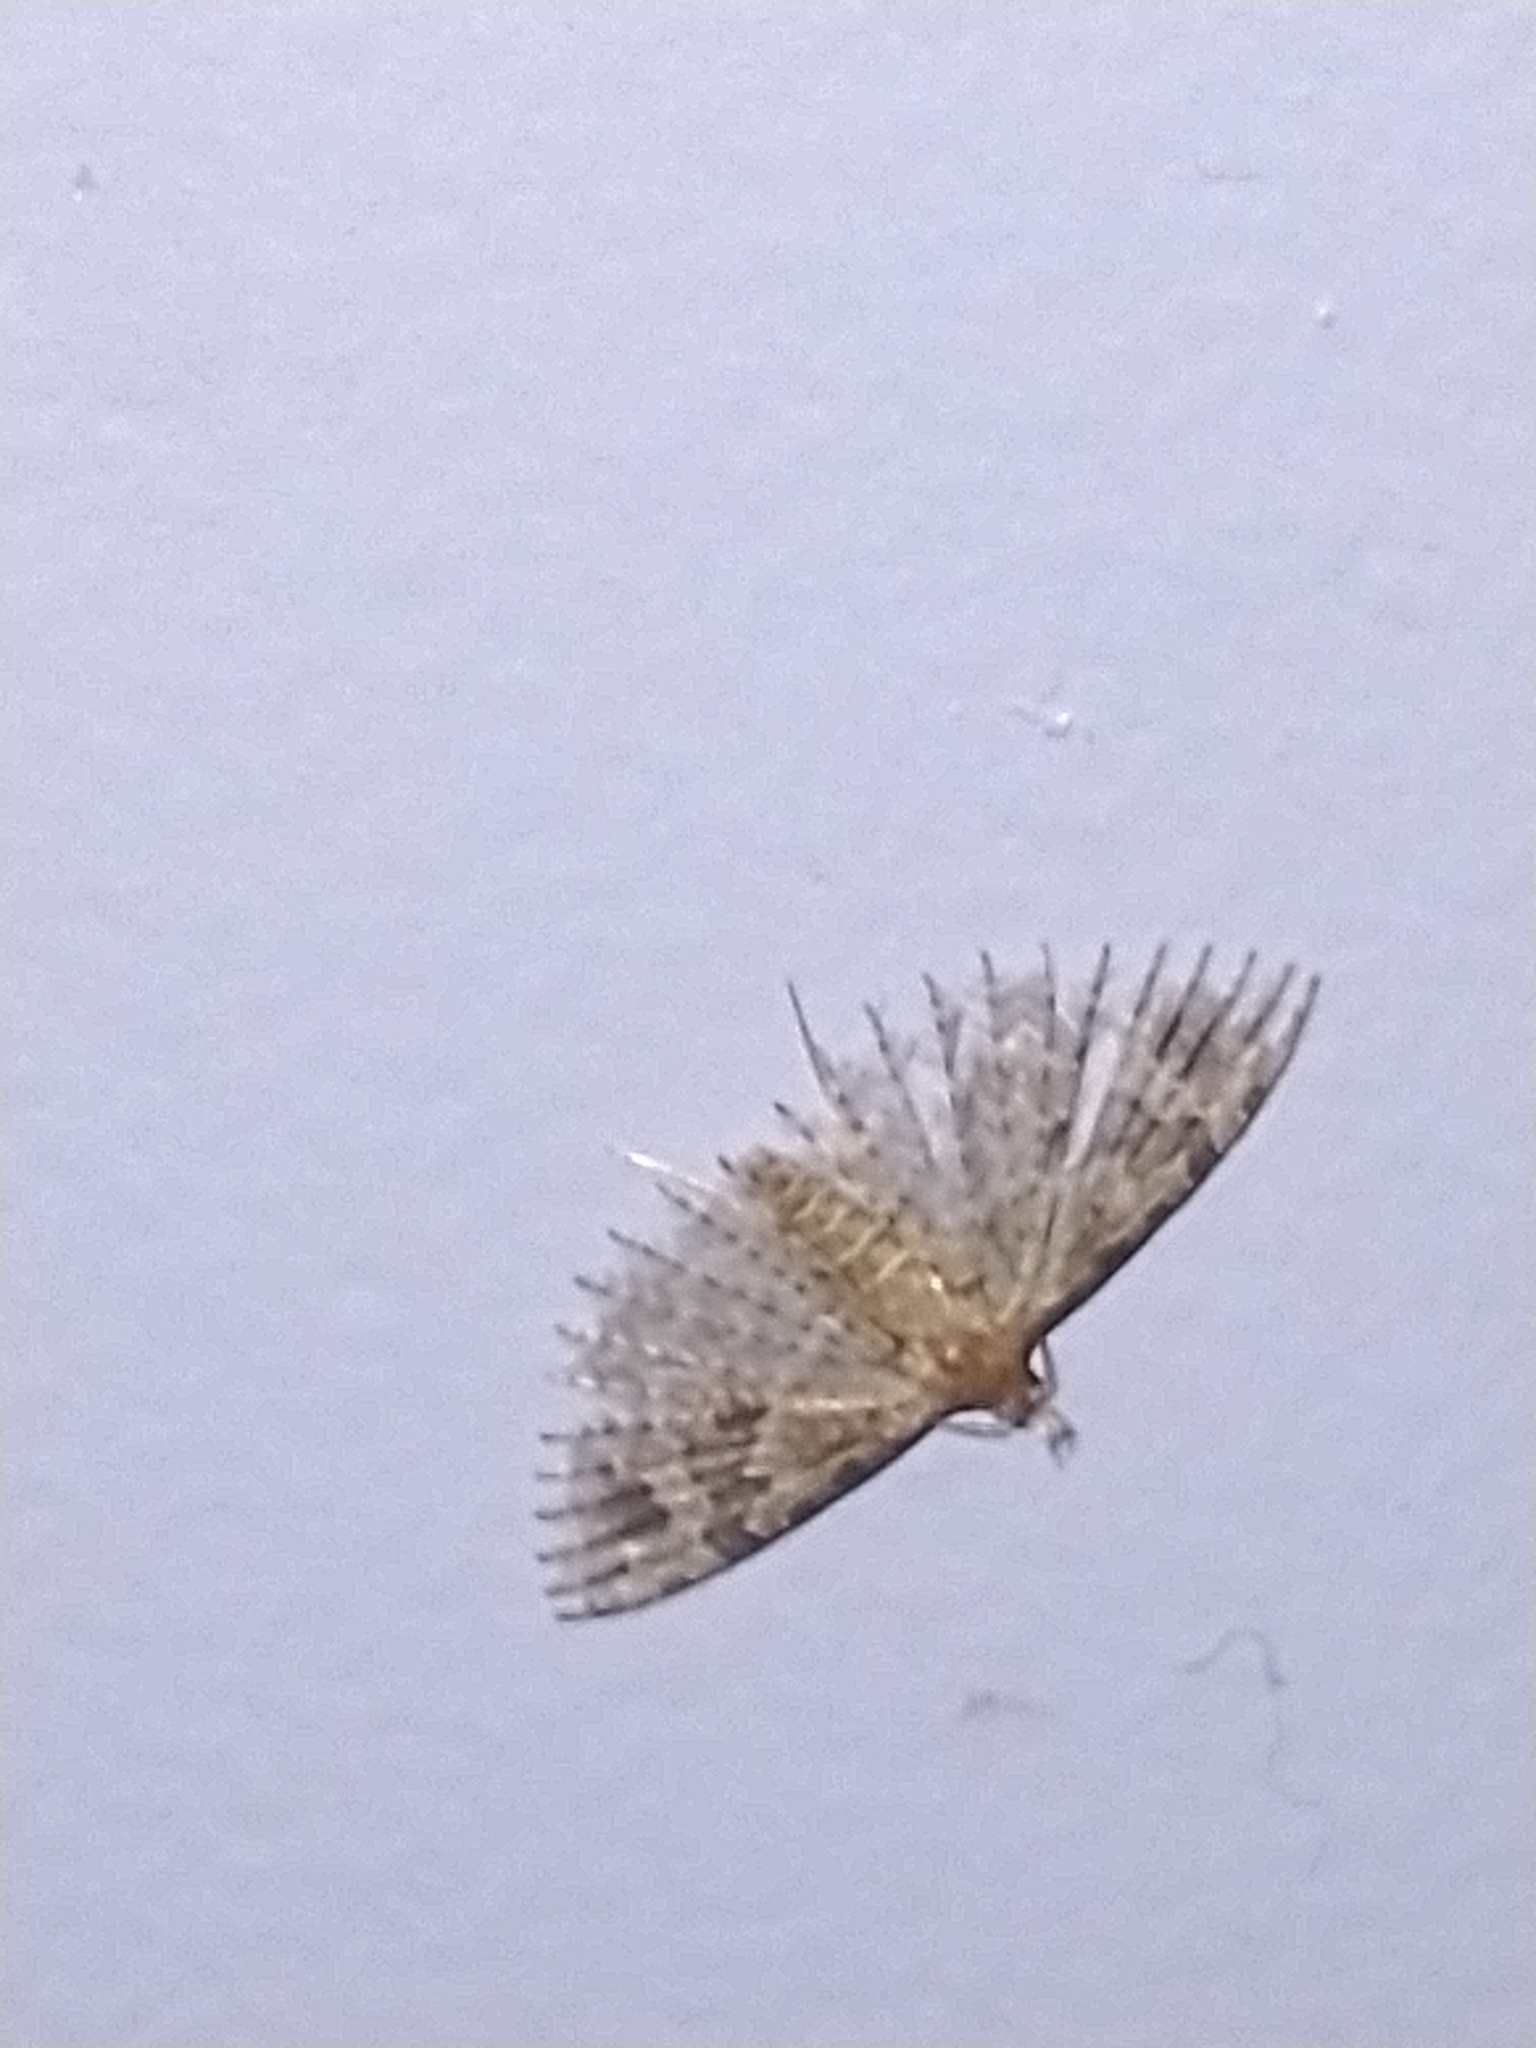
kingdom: Animalia
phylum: Arthropoda
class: Insecta
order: Lepidoptera
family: Alucitidae
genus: Alucita
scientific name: Alucita hexadactyla
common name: Twenty-plume moth
